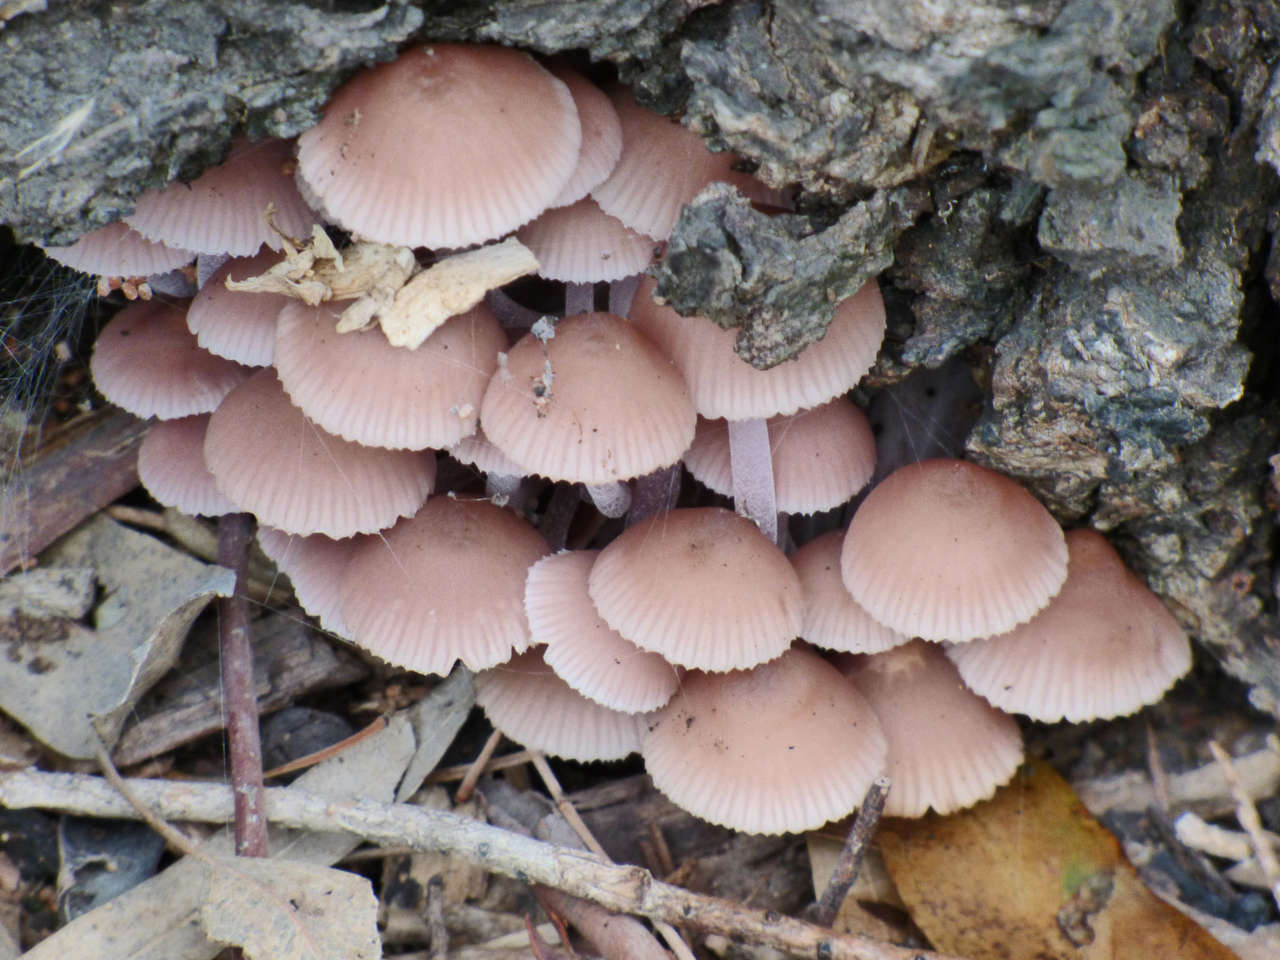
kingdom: Fungi
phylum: Basidiomycota
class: Agaricomycetes
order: Agaricales
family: Mycenaceae
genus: Mycena
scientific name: Mycena clarkeana
